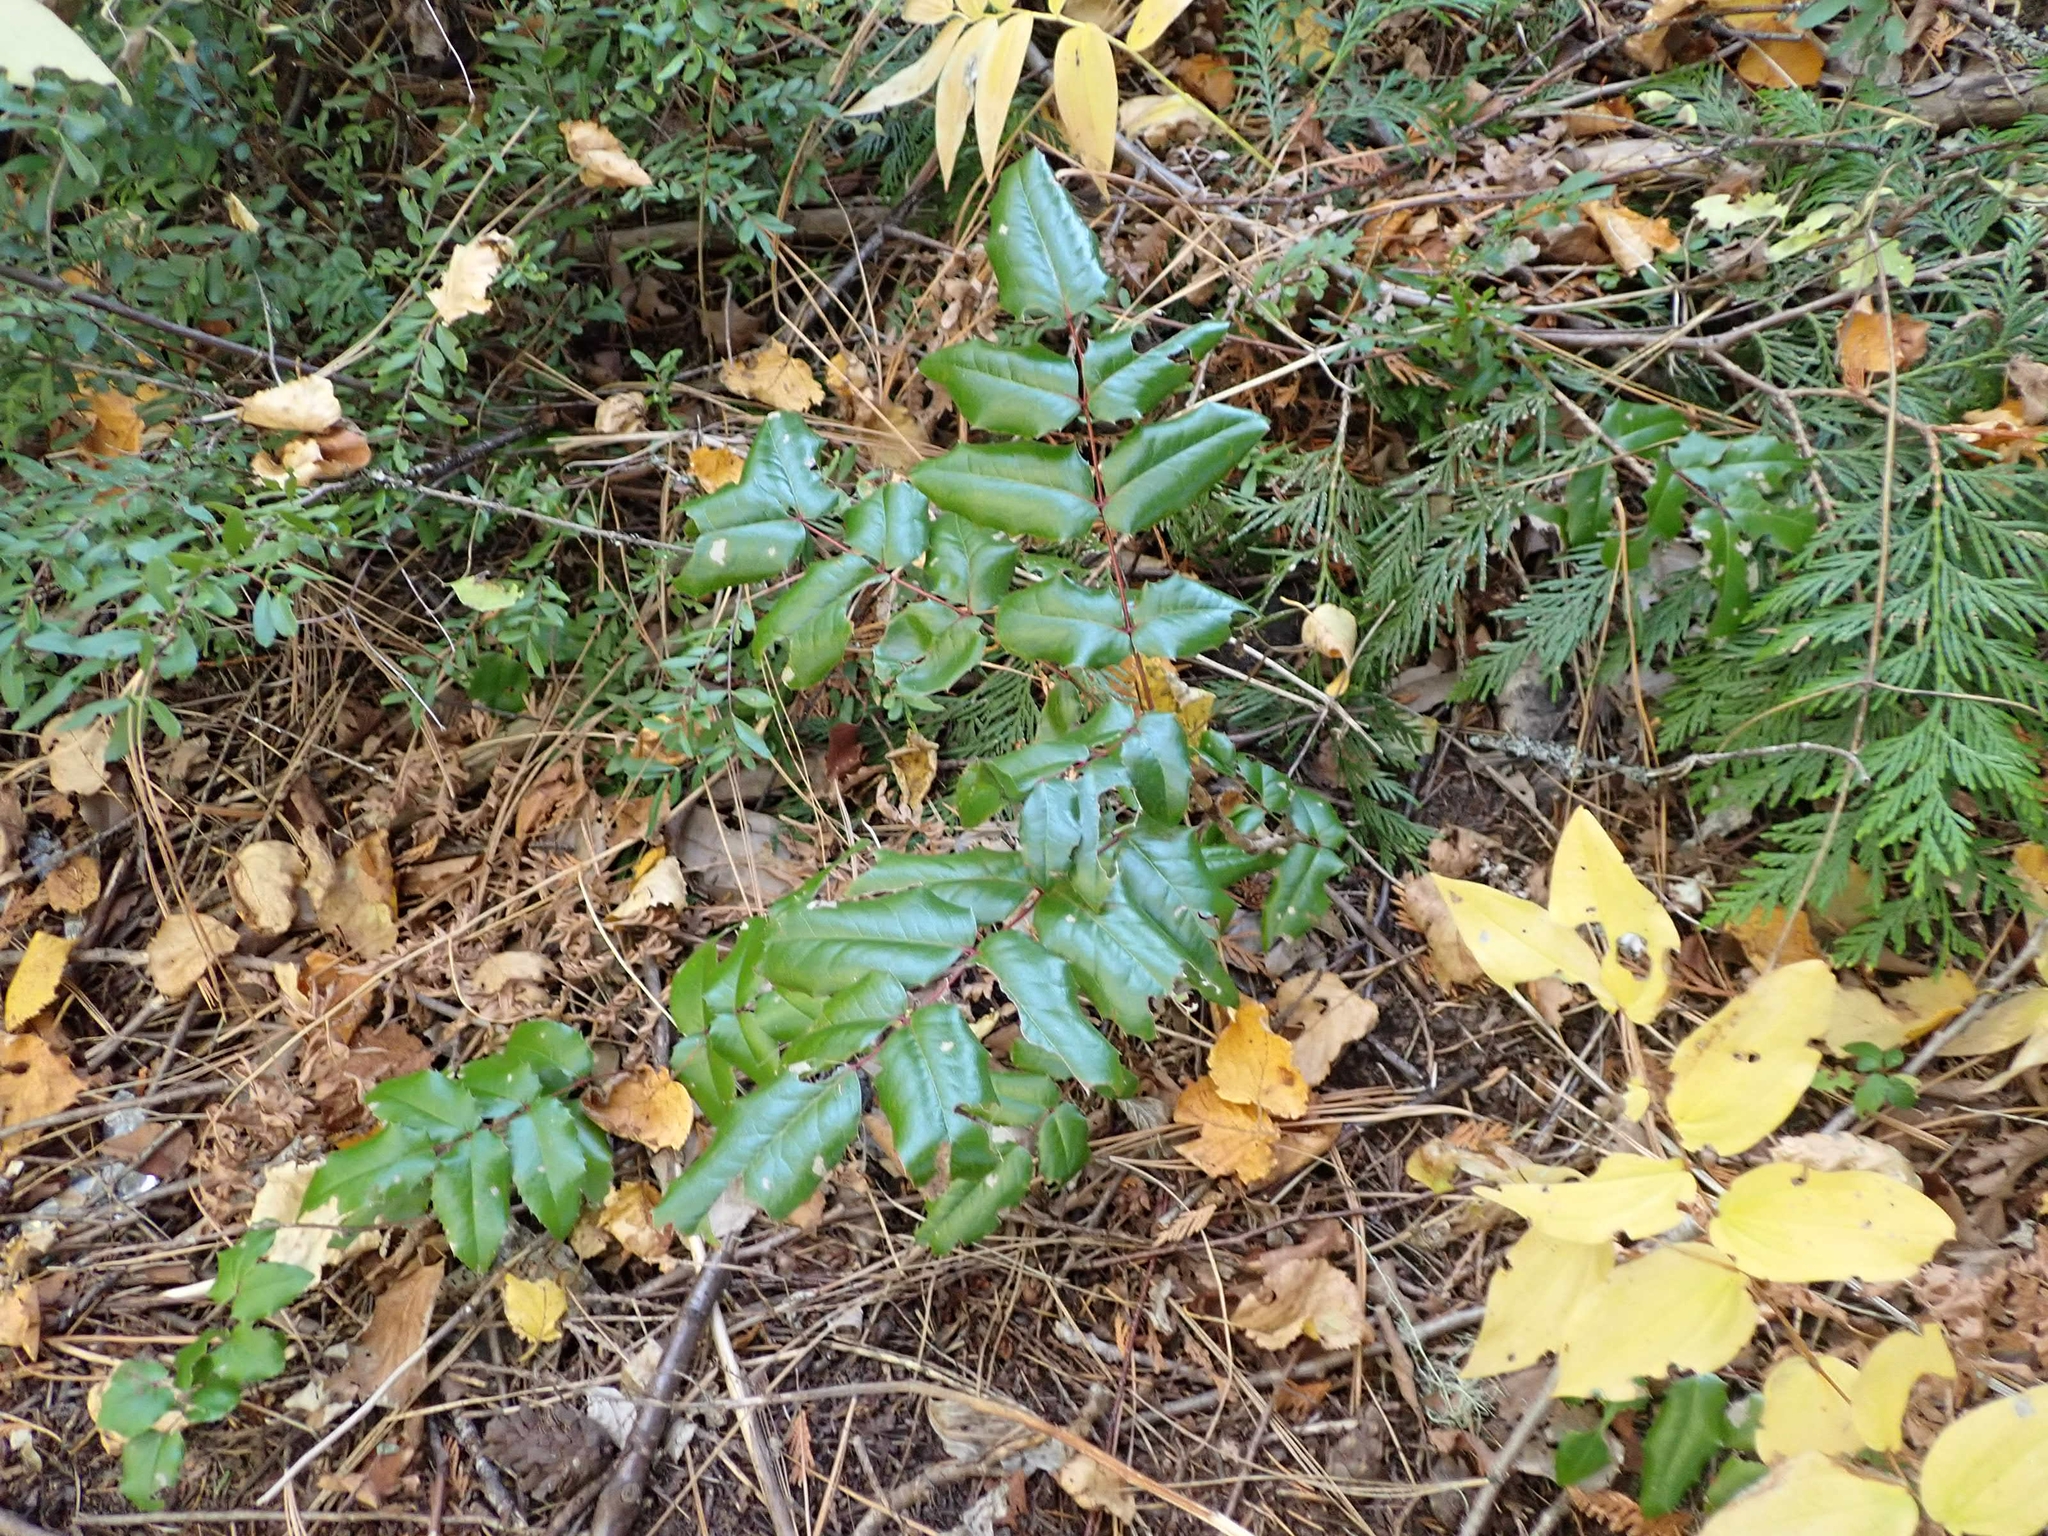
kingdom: Plantae
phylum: Tracheophyta
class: Magnoliopsida
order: Ranunculales
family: Berberidaceae
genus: Mahonia
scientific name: Mahonia aquifolium
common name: Oregon-grape
